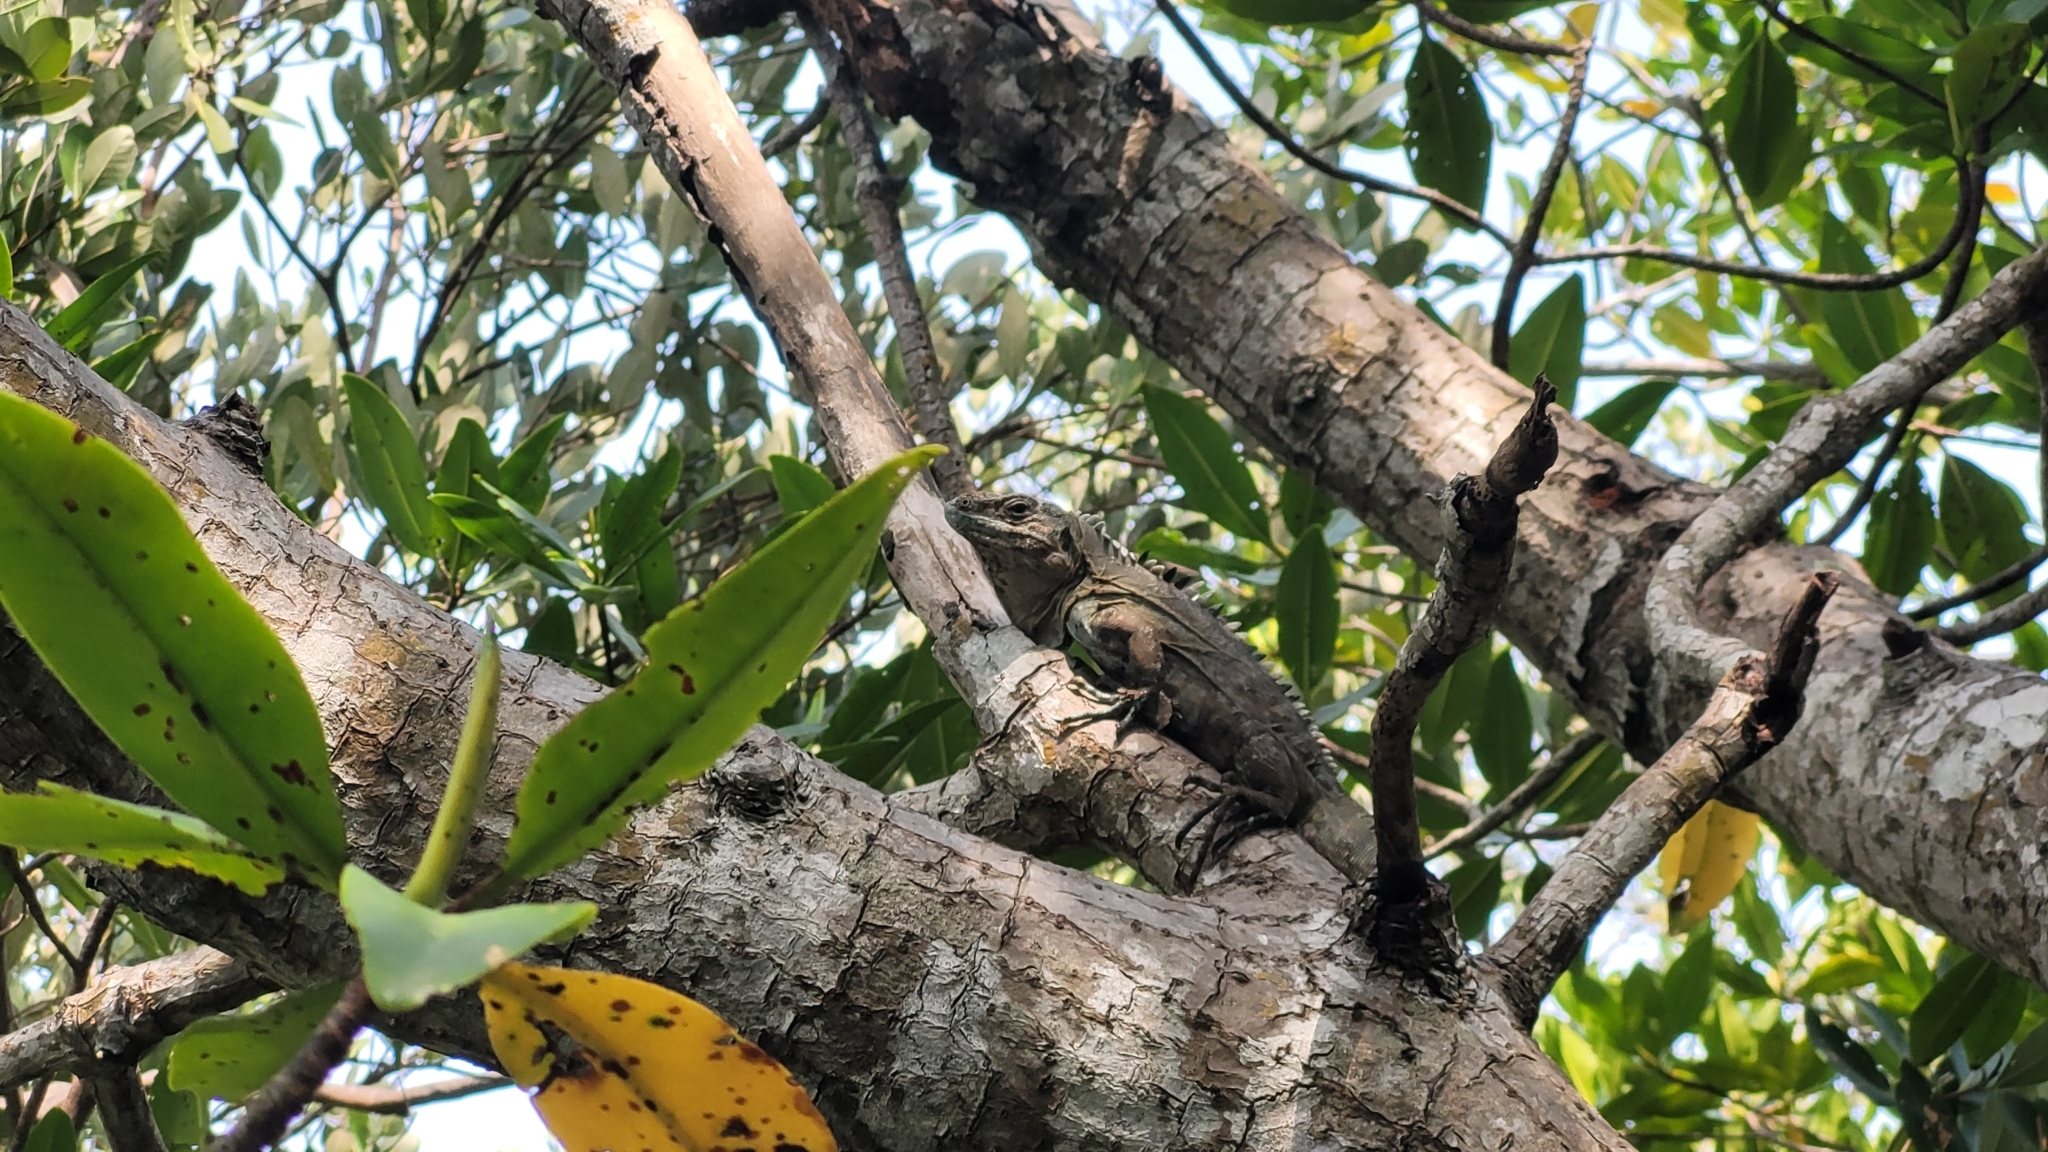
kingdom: Animalia
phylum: Chordata
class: Squamata
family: Iguanidae
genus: Ctenosaura
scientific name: Ctenosaura bakeri
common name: Utila spiny-tailed iguana
